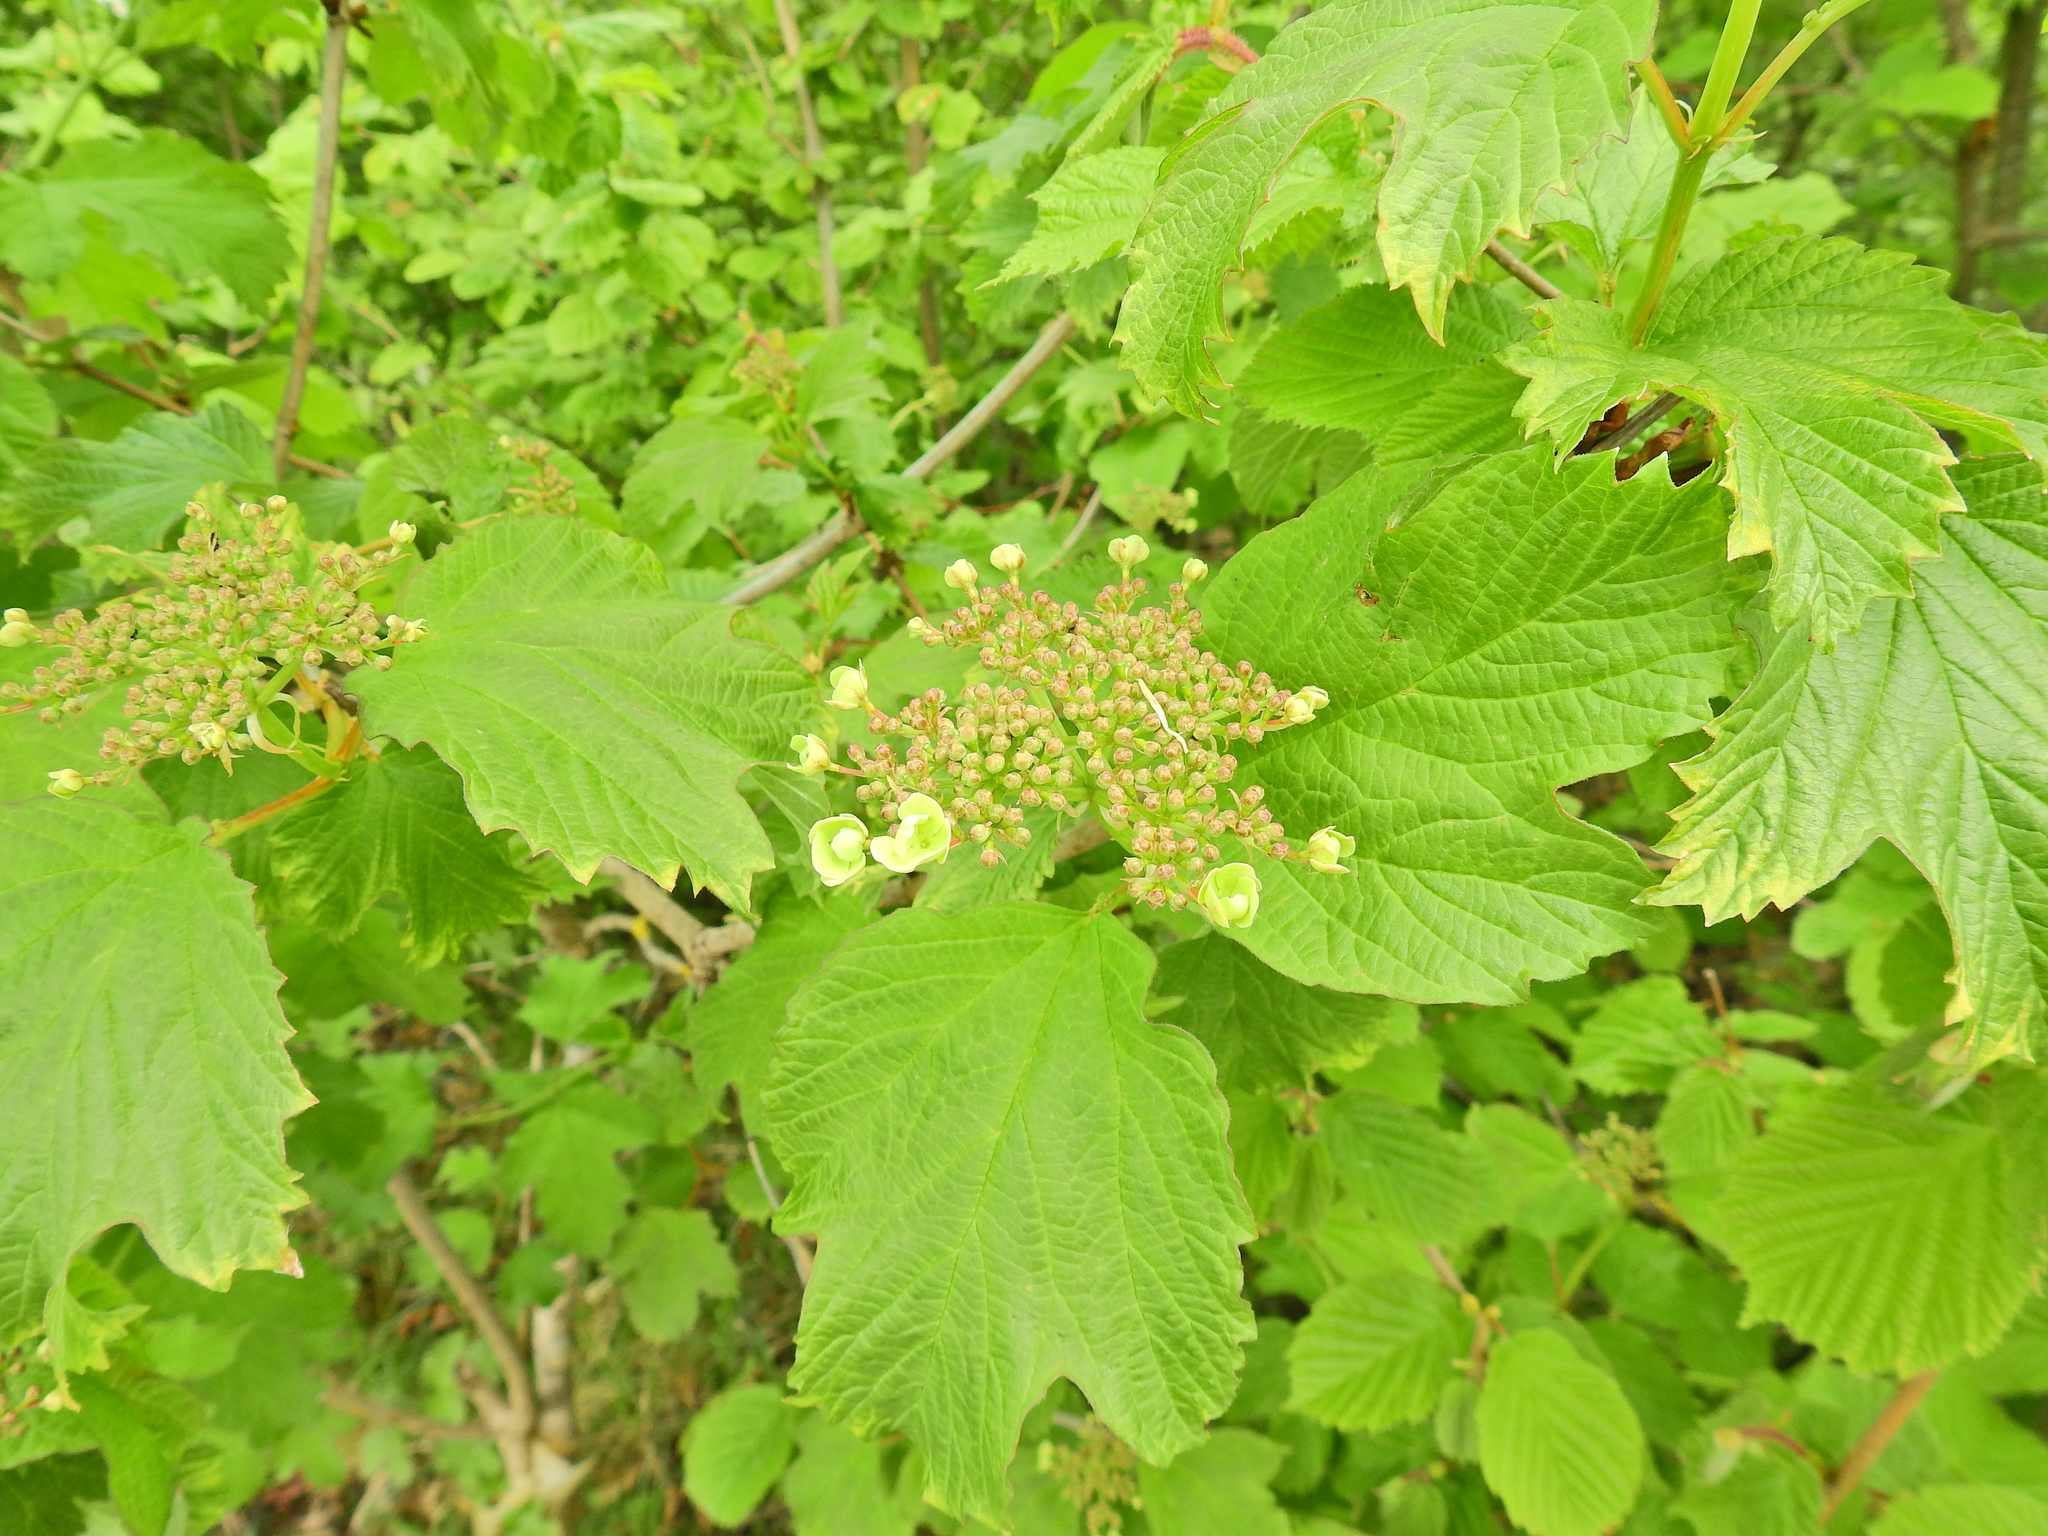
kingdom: Plantae
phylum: Tracheophyta
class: Magnoliopsida
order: Dipsacales
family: Viburnaceae
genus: Viburnum
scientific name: Viburnum opulus
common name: Guelder-rose
